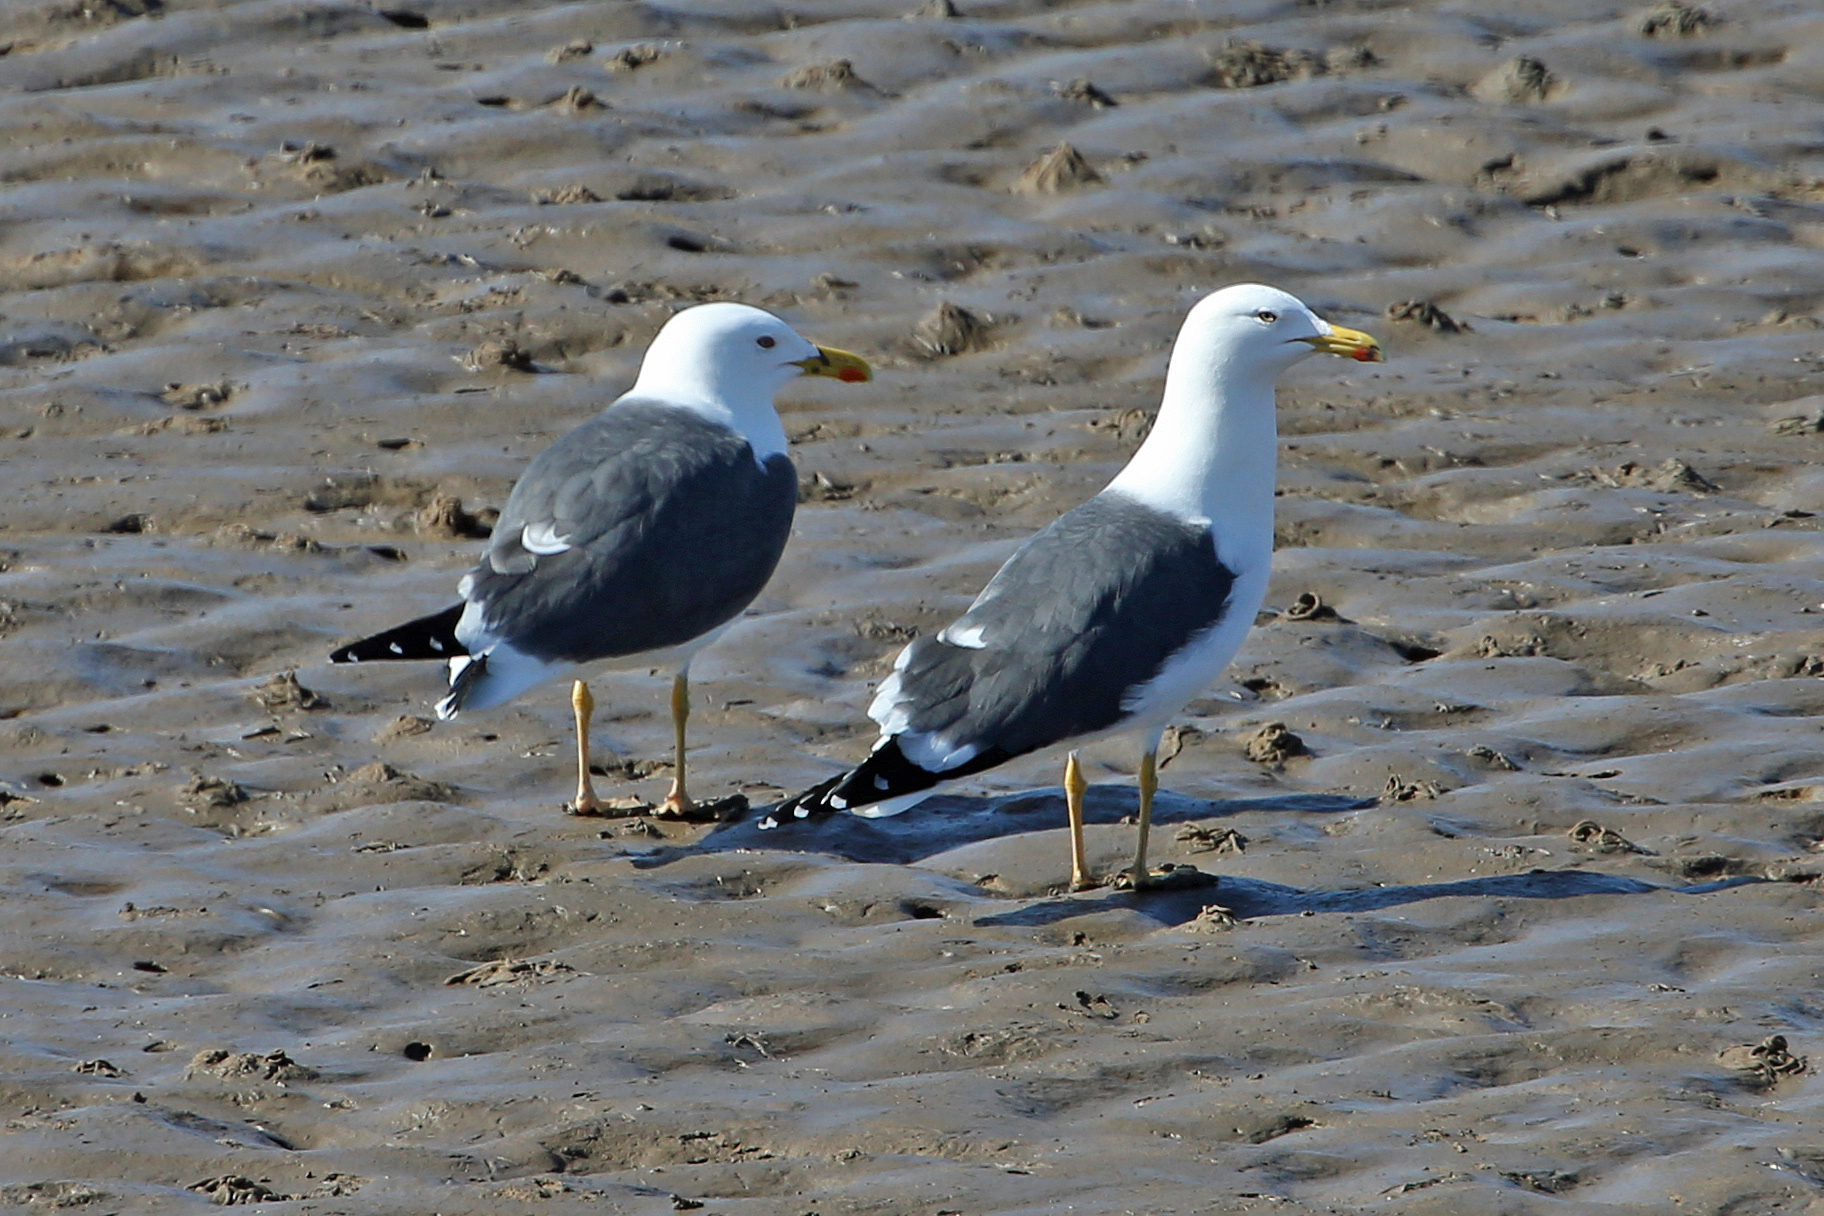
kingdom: Animalia
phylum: Chordata
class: Aves
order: Charadriiformes
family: Laridae
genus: Larus
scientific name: Larus fuscus
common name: Lesser black-backed gull
